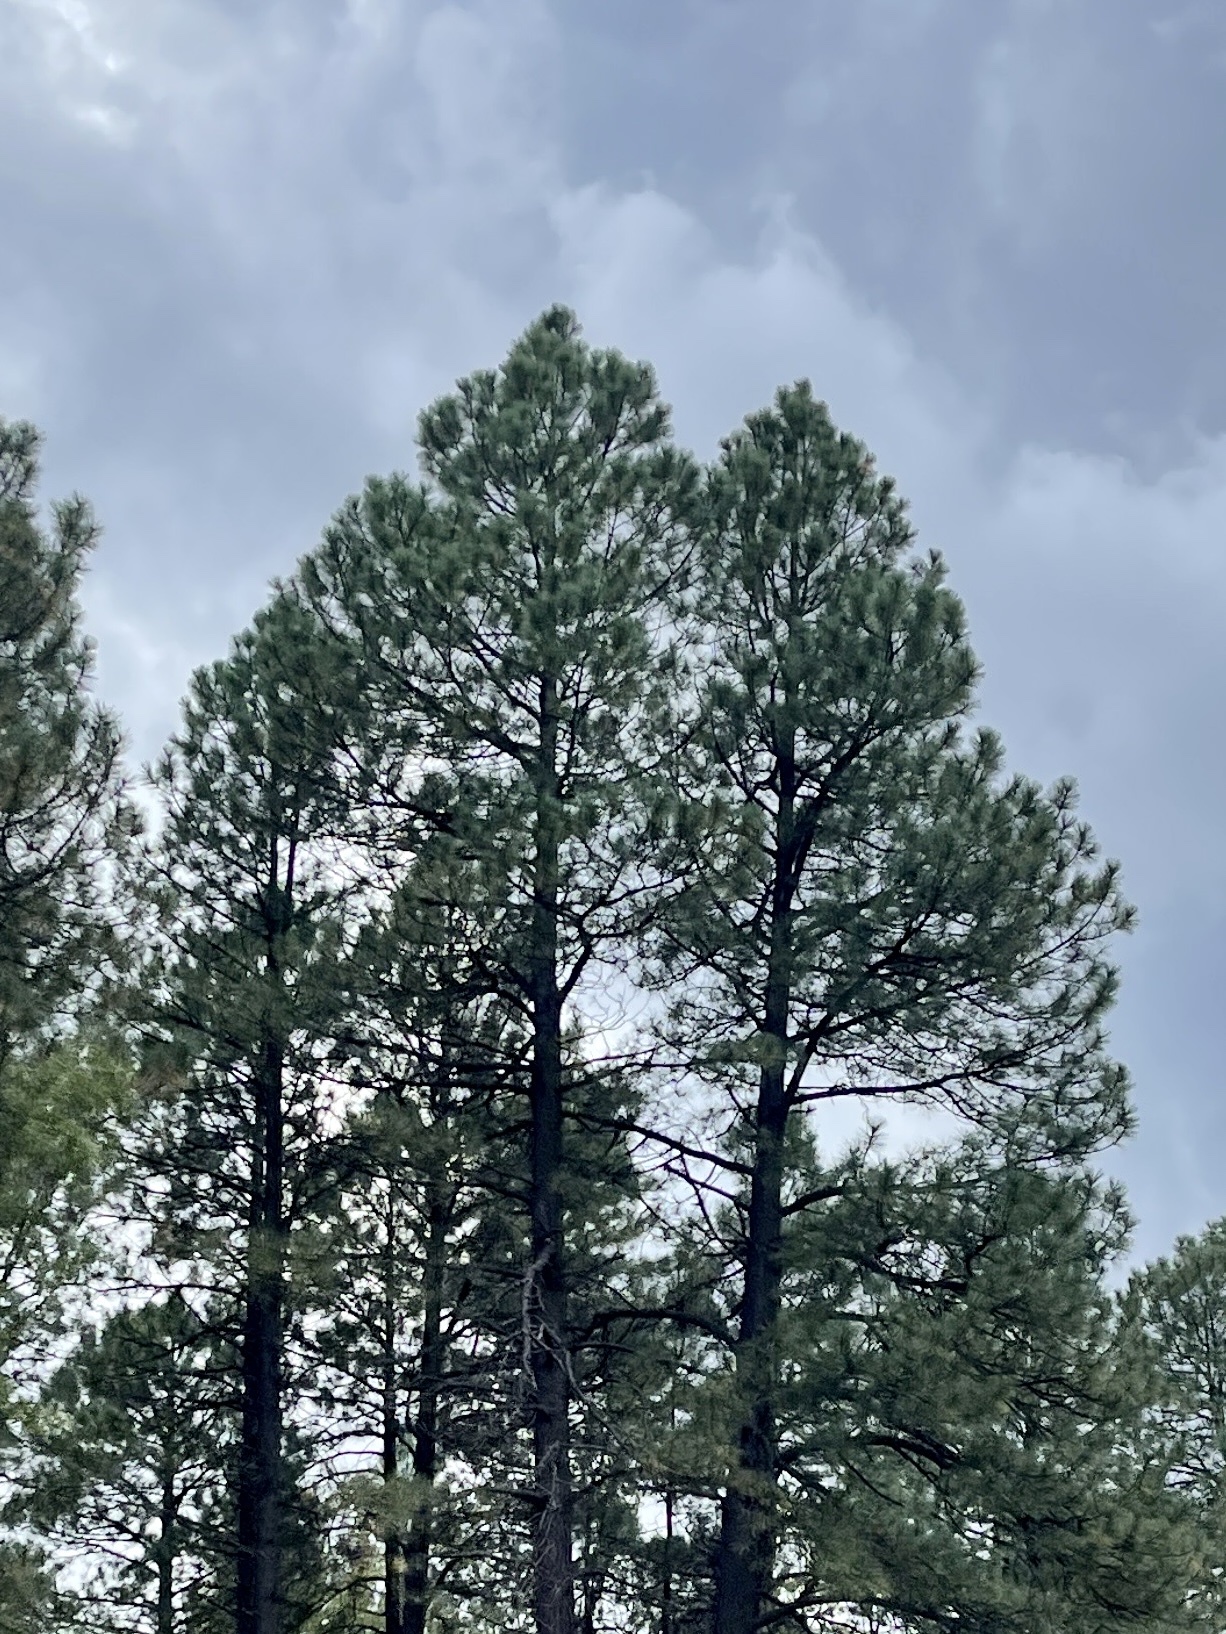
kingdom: Plantae
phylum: Tracheophyta
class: Pinopsida
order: Pinales
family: Pinaceae
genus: Pinus
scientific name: Pinus ponderosa
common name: Western yellow-pine
